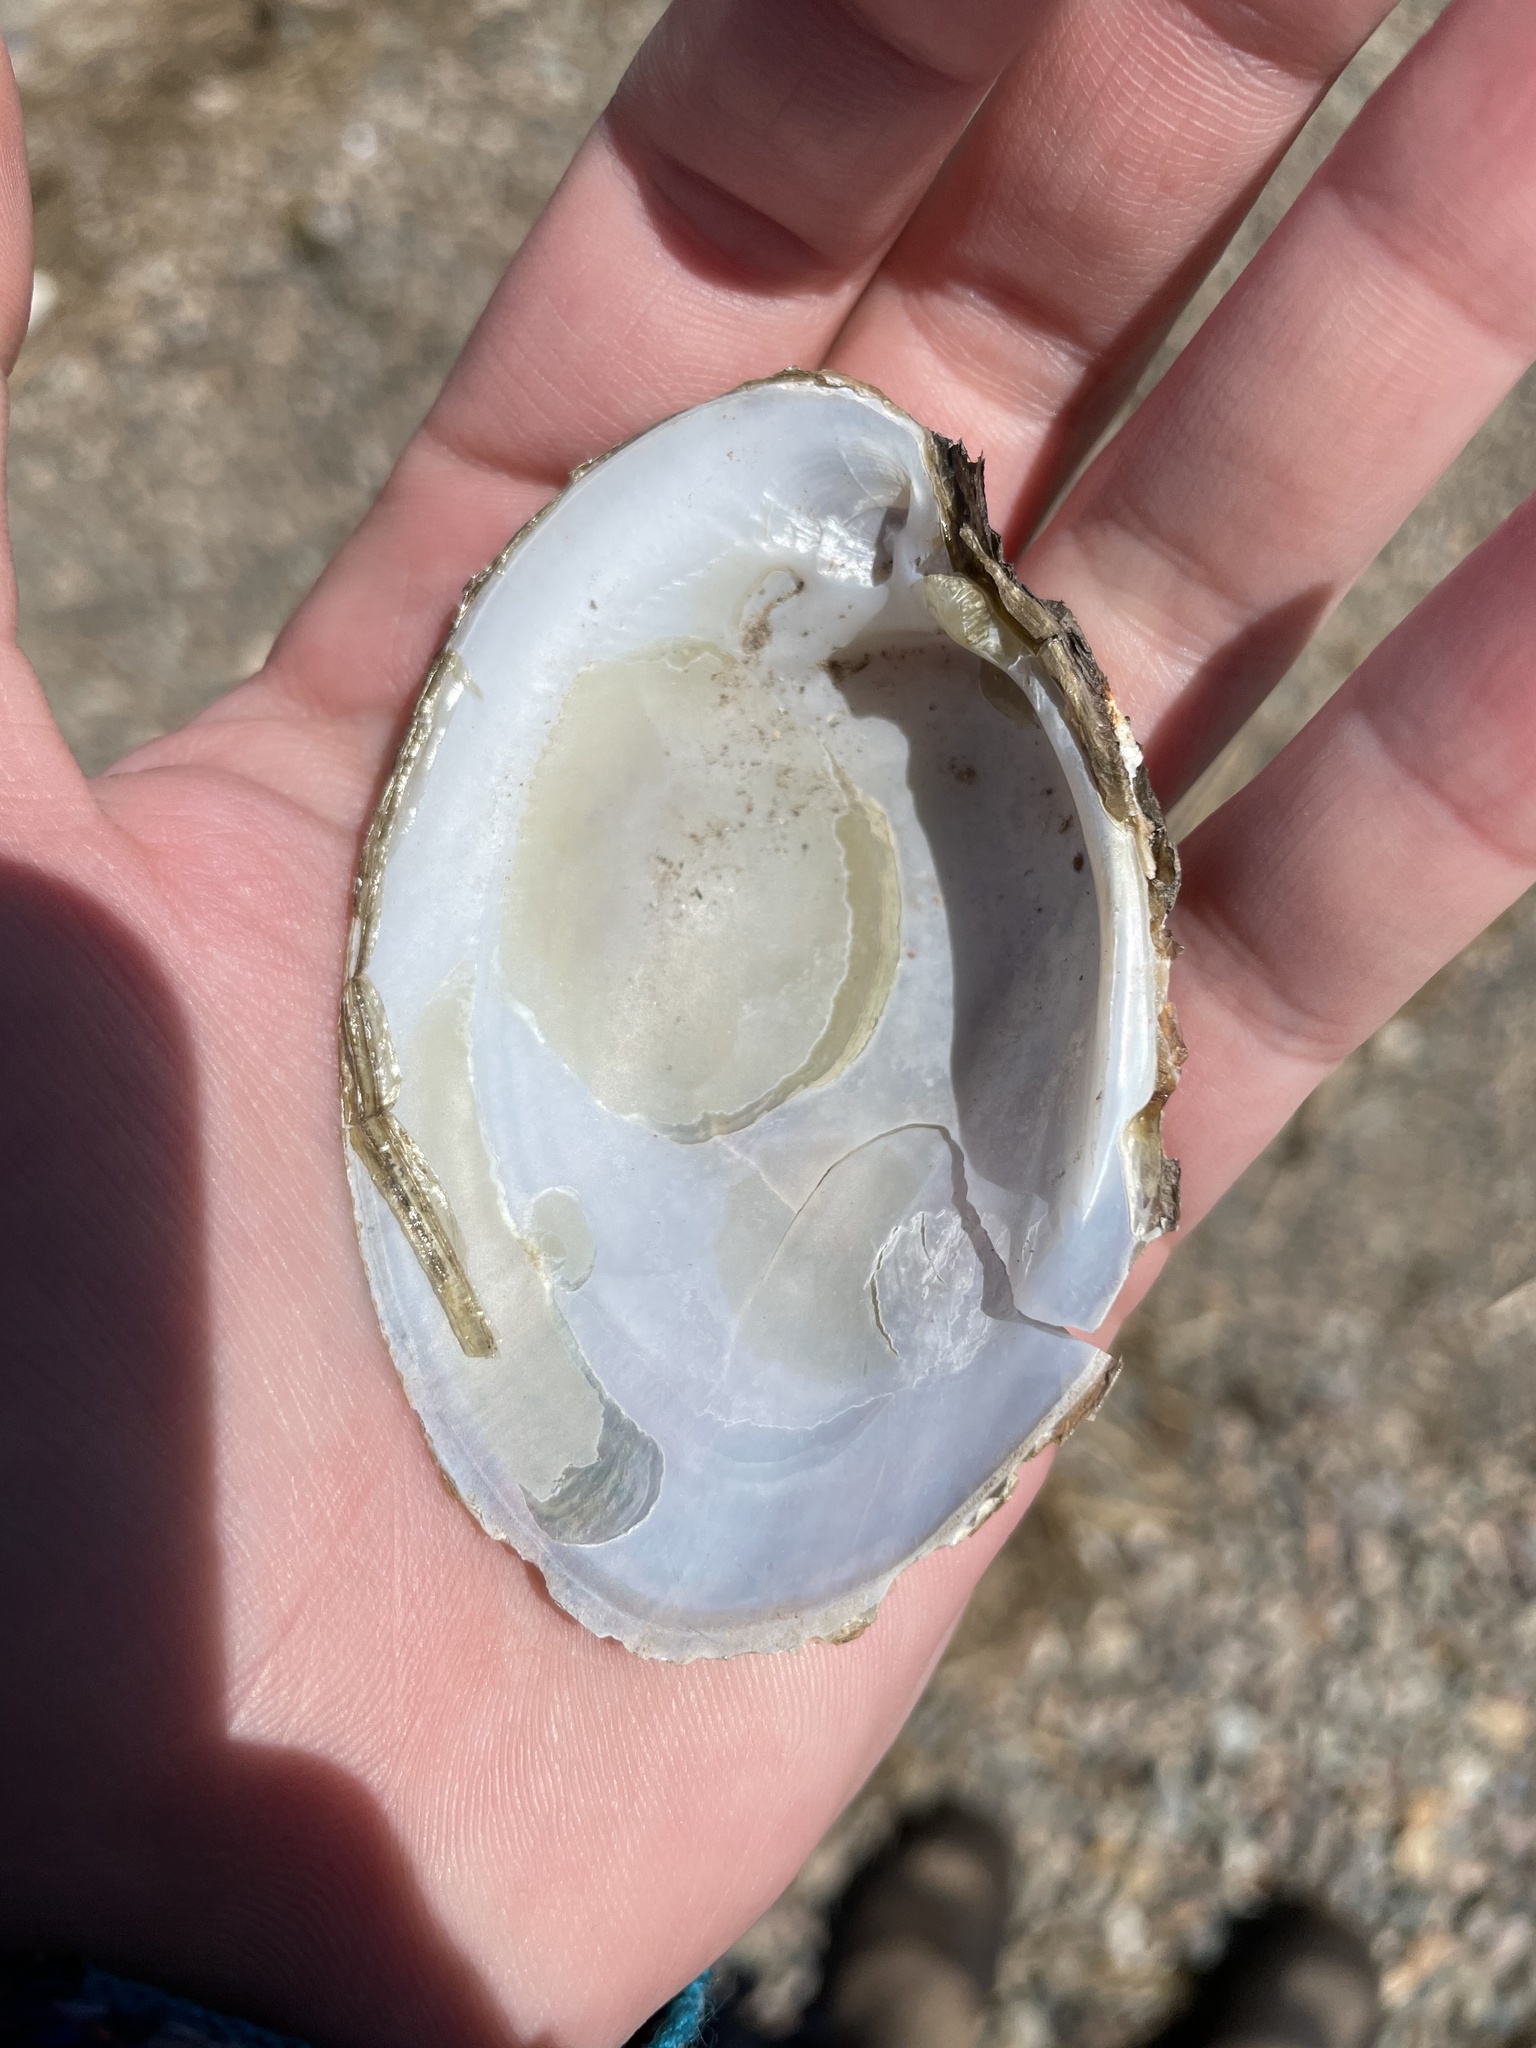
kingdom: Animalia
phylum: Mollusca
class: Bivalvia
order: Unionida
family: Unionidae
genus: Lampsilis
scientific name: Lampsilis cariosa
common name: Yellow lampmussel
